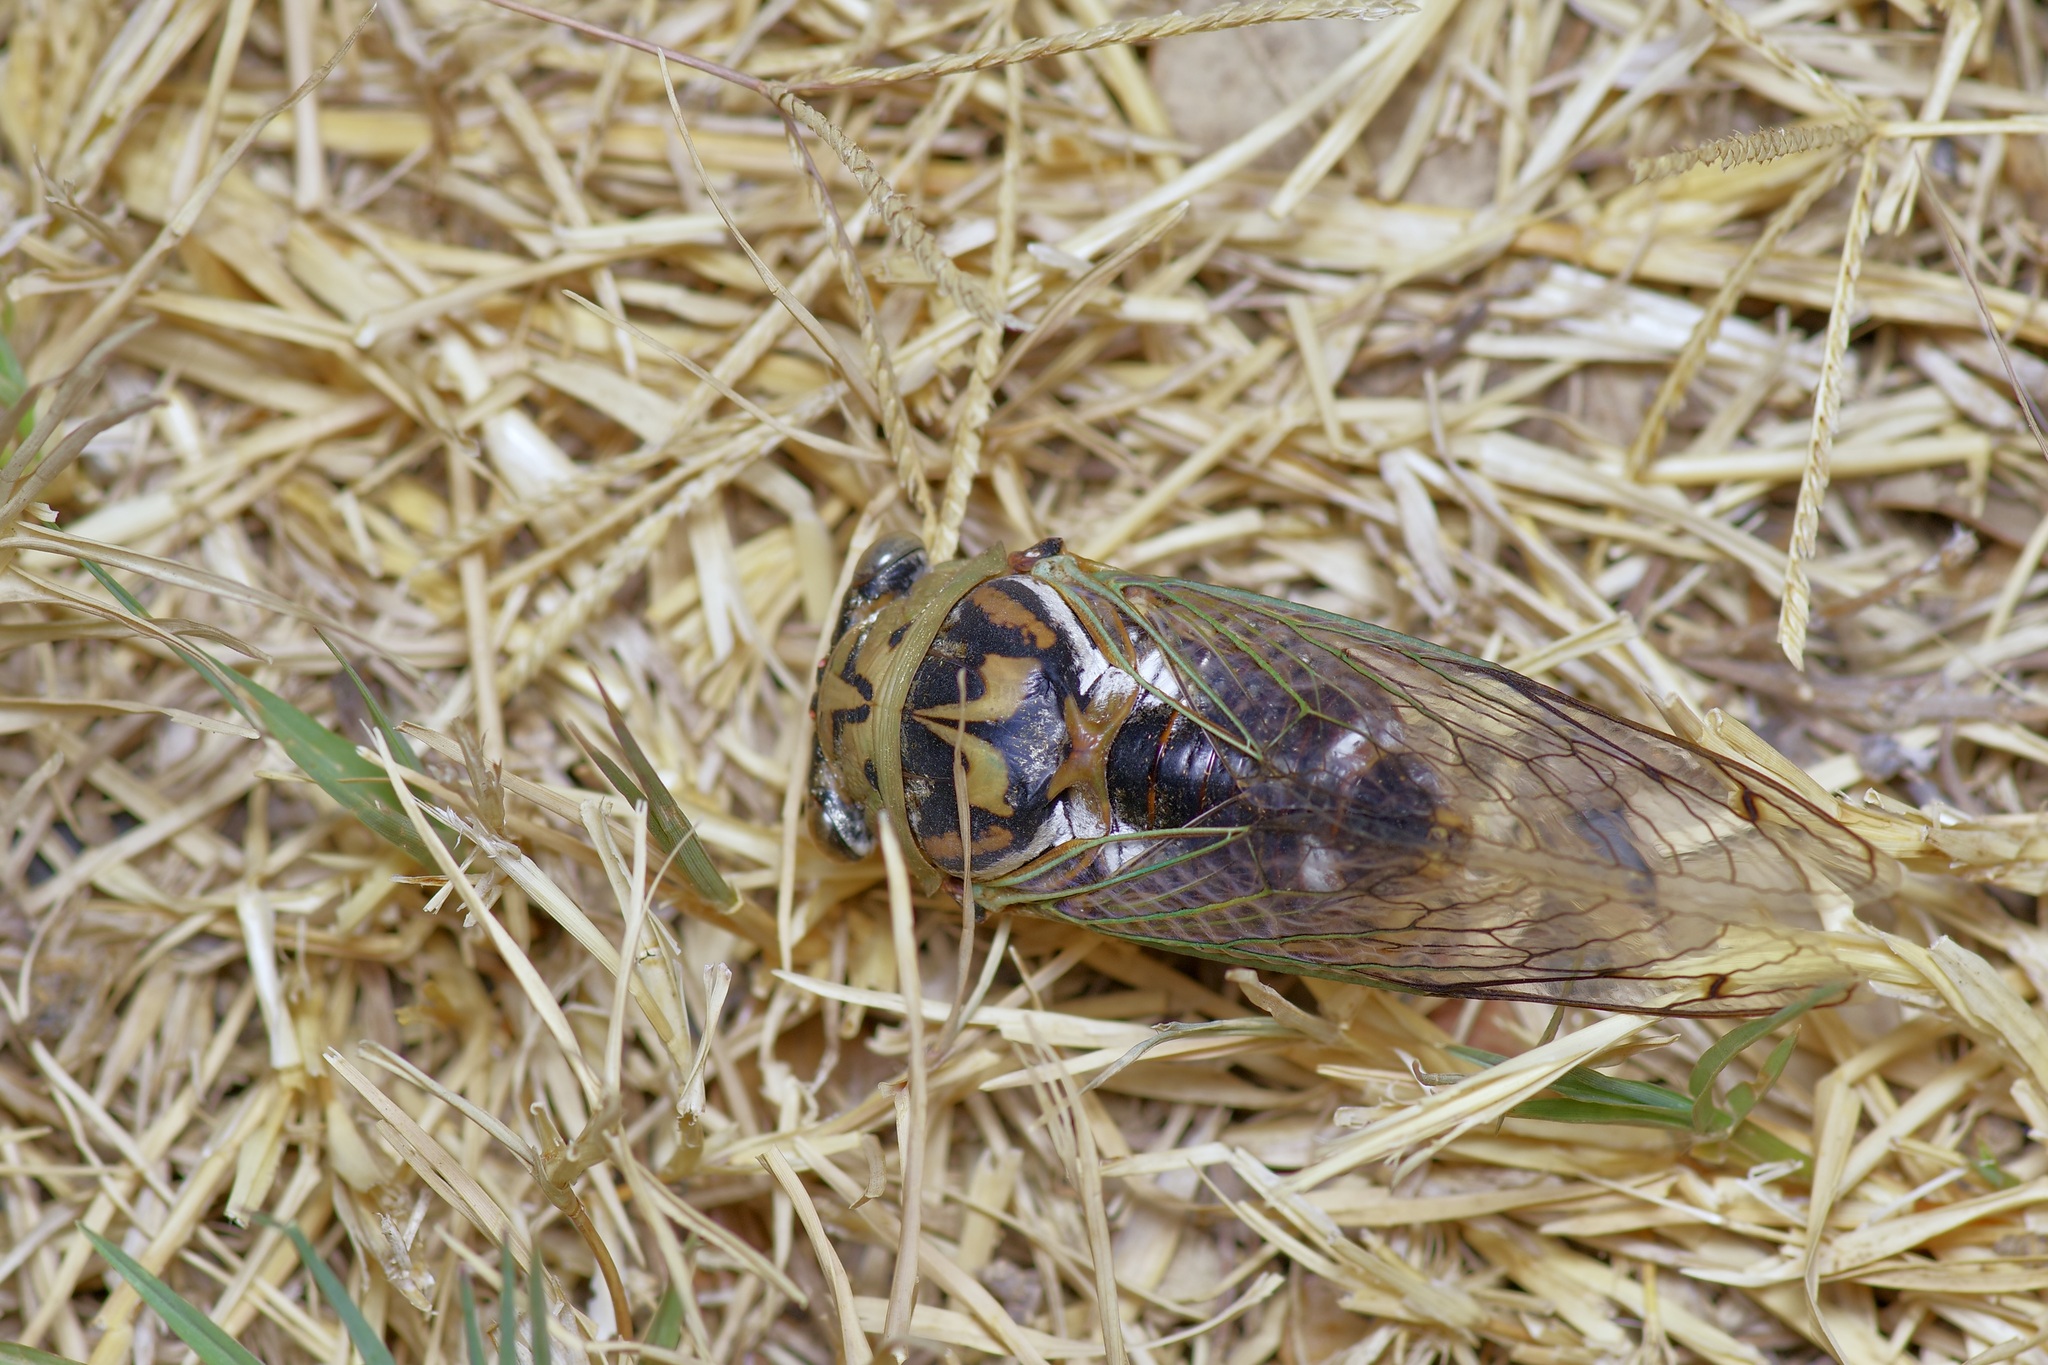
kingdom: Animalia
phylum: Arthropoda
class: Insecta
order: Hemiptera
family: Cicadidae
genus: Megatibicen
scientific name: Megatibicen resh
